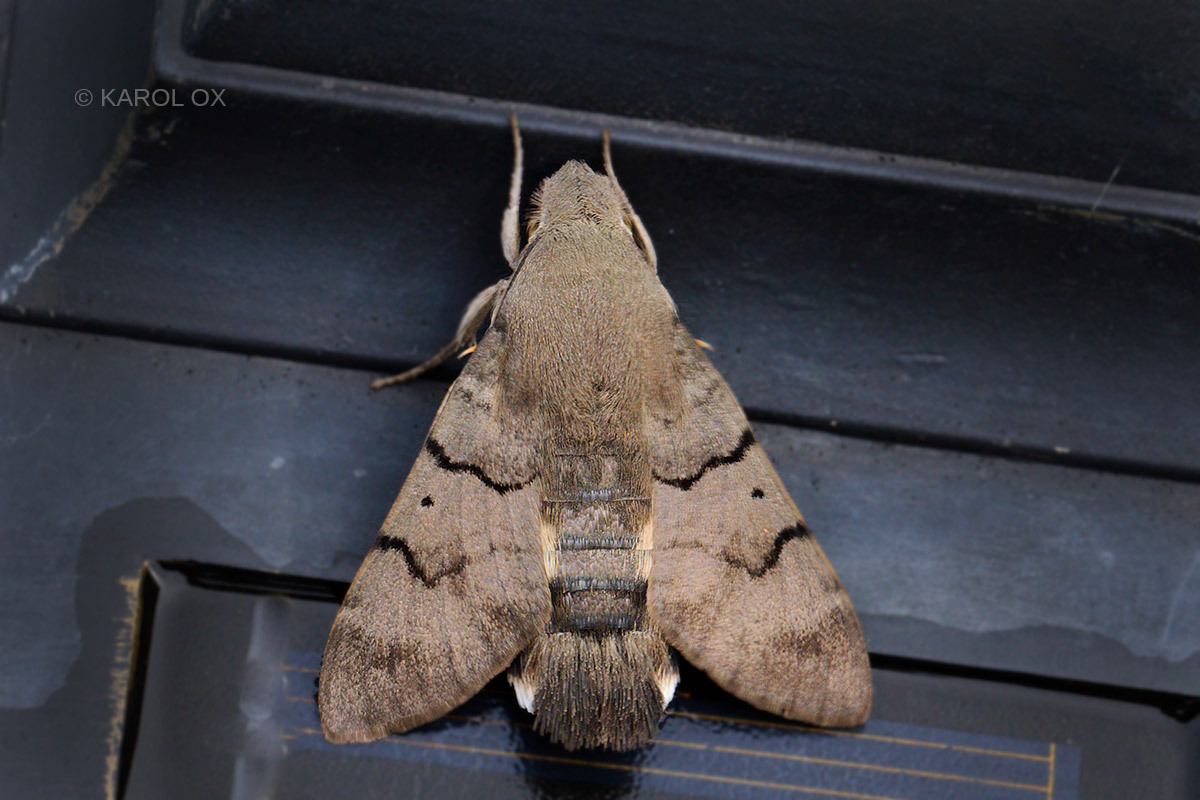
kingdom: Animalia
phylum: Arthropoda
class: Insecta
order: Lepidoptera
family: Sphingidae
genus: Macroglossum
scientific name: Macroglossum stellatarum
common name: Humming-bird hawk-moth
